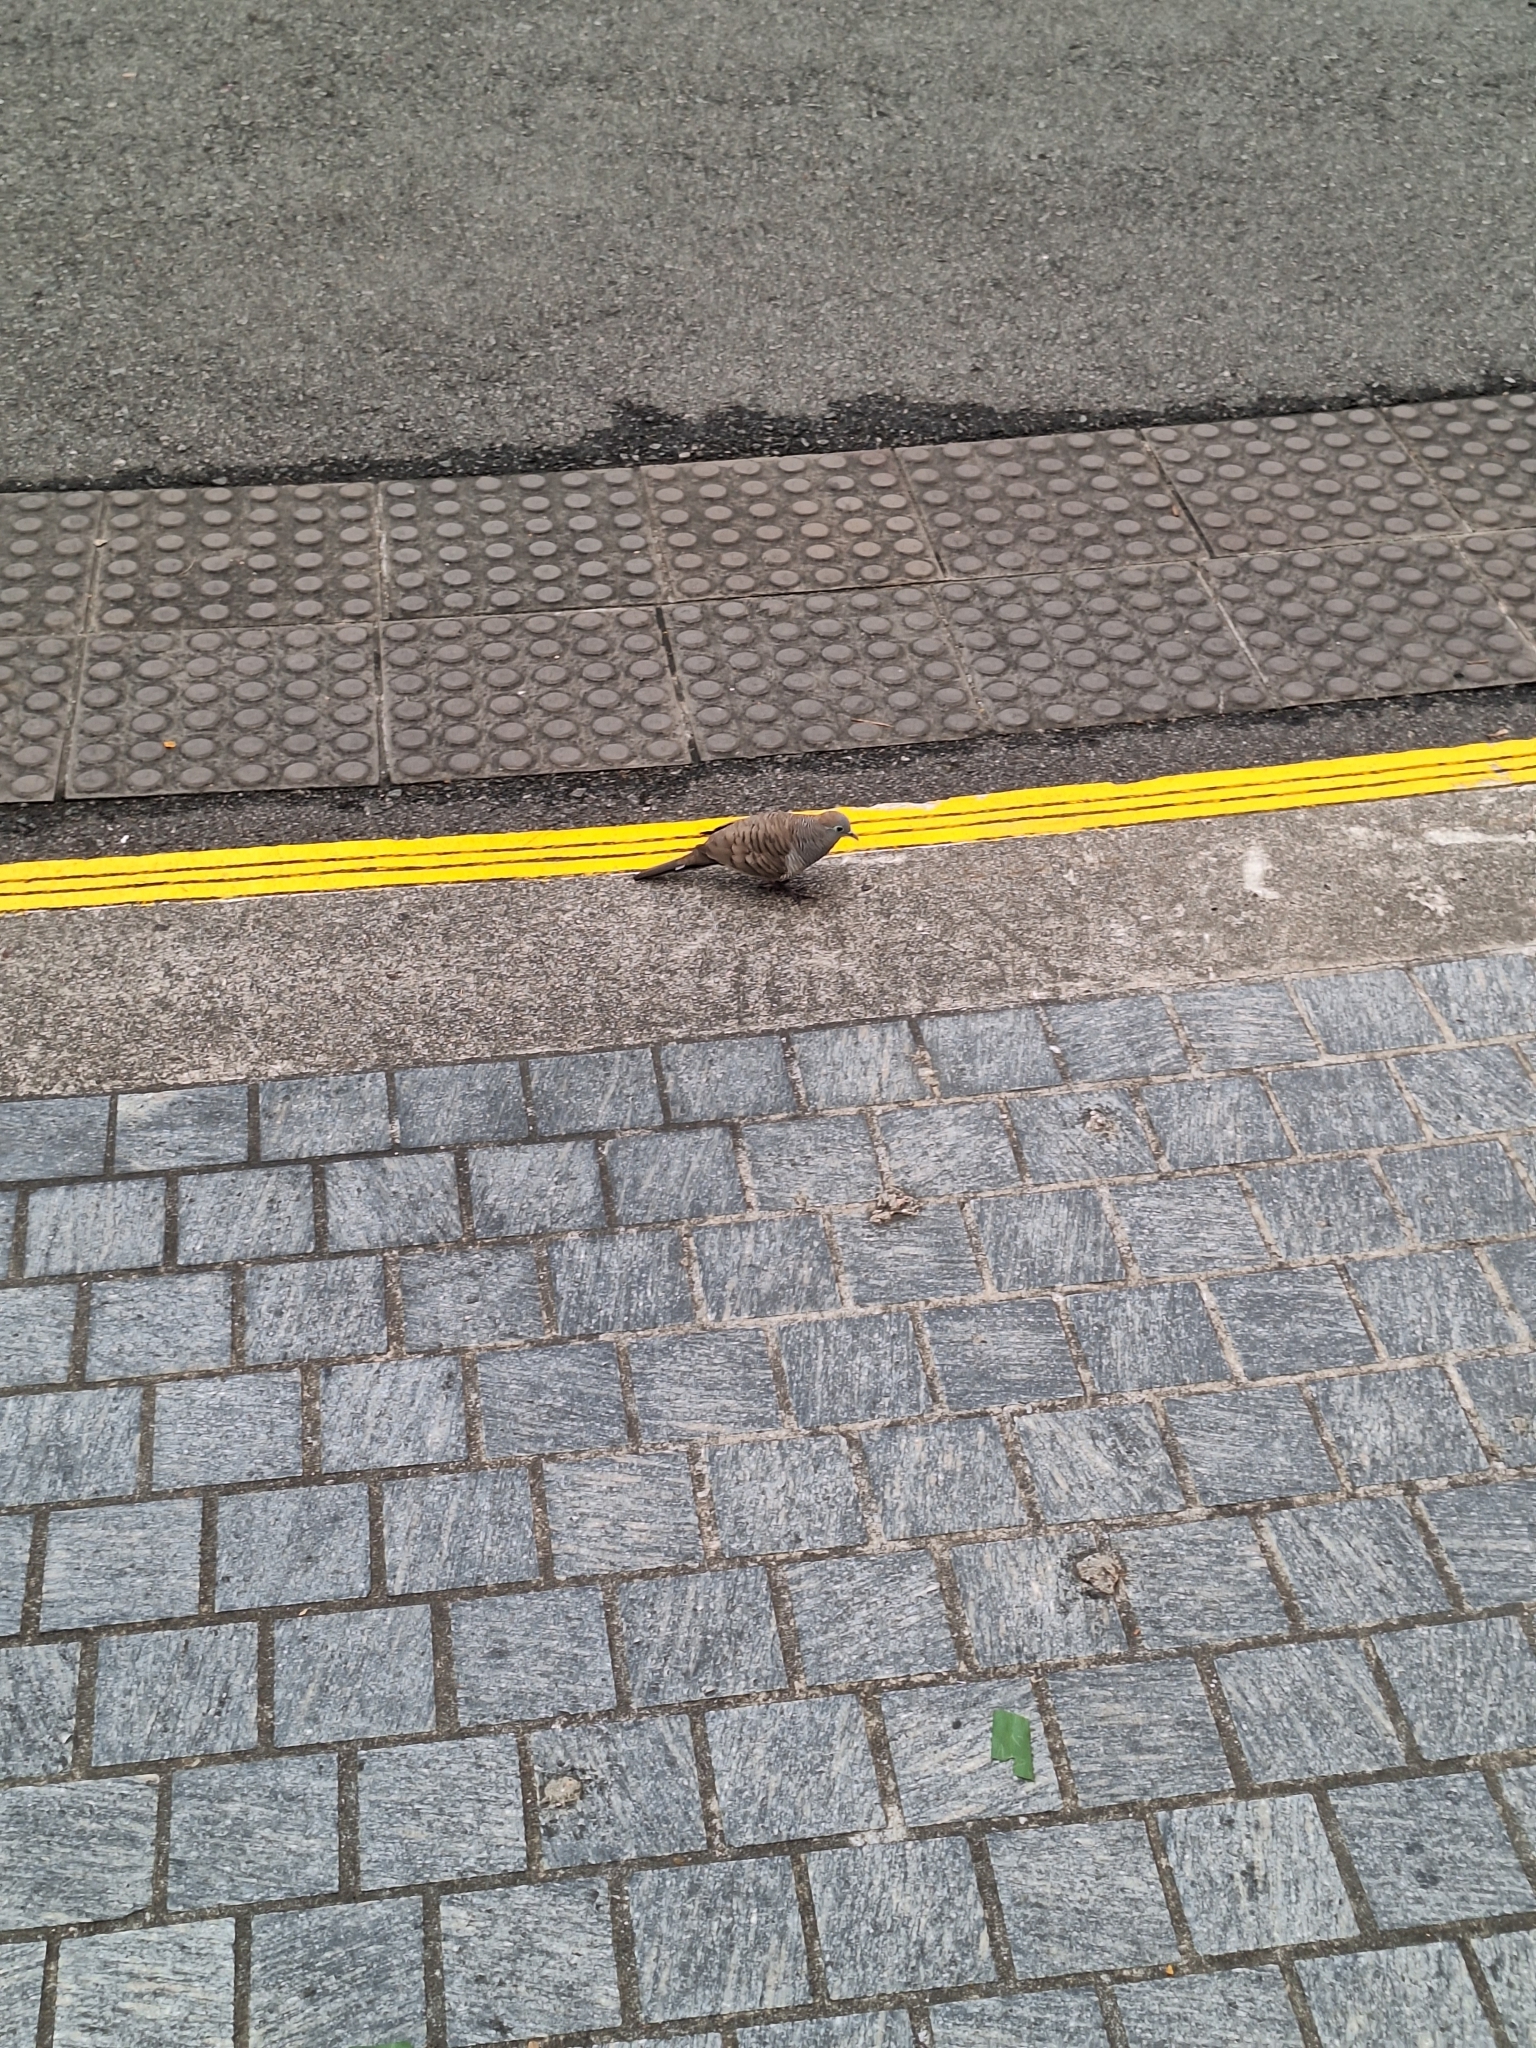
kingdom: Animalia
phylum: Chordata
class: Aves
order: Columbiformes
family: Columbidae
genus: Geopelia
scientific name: Geopelia striata
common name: Zebra dove
